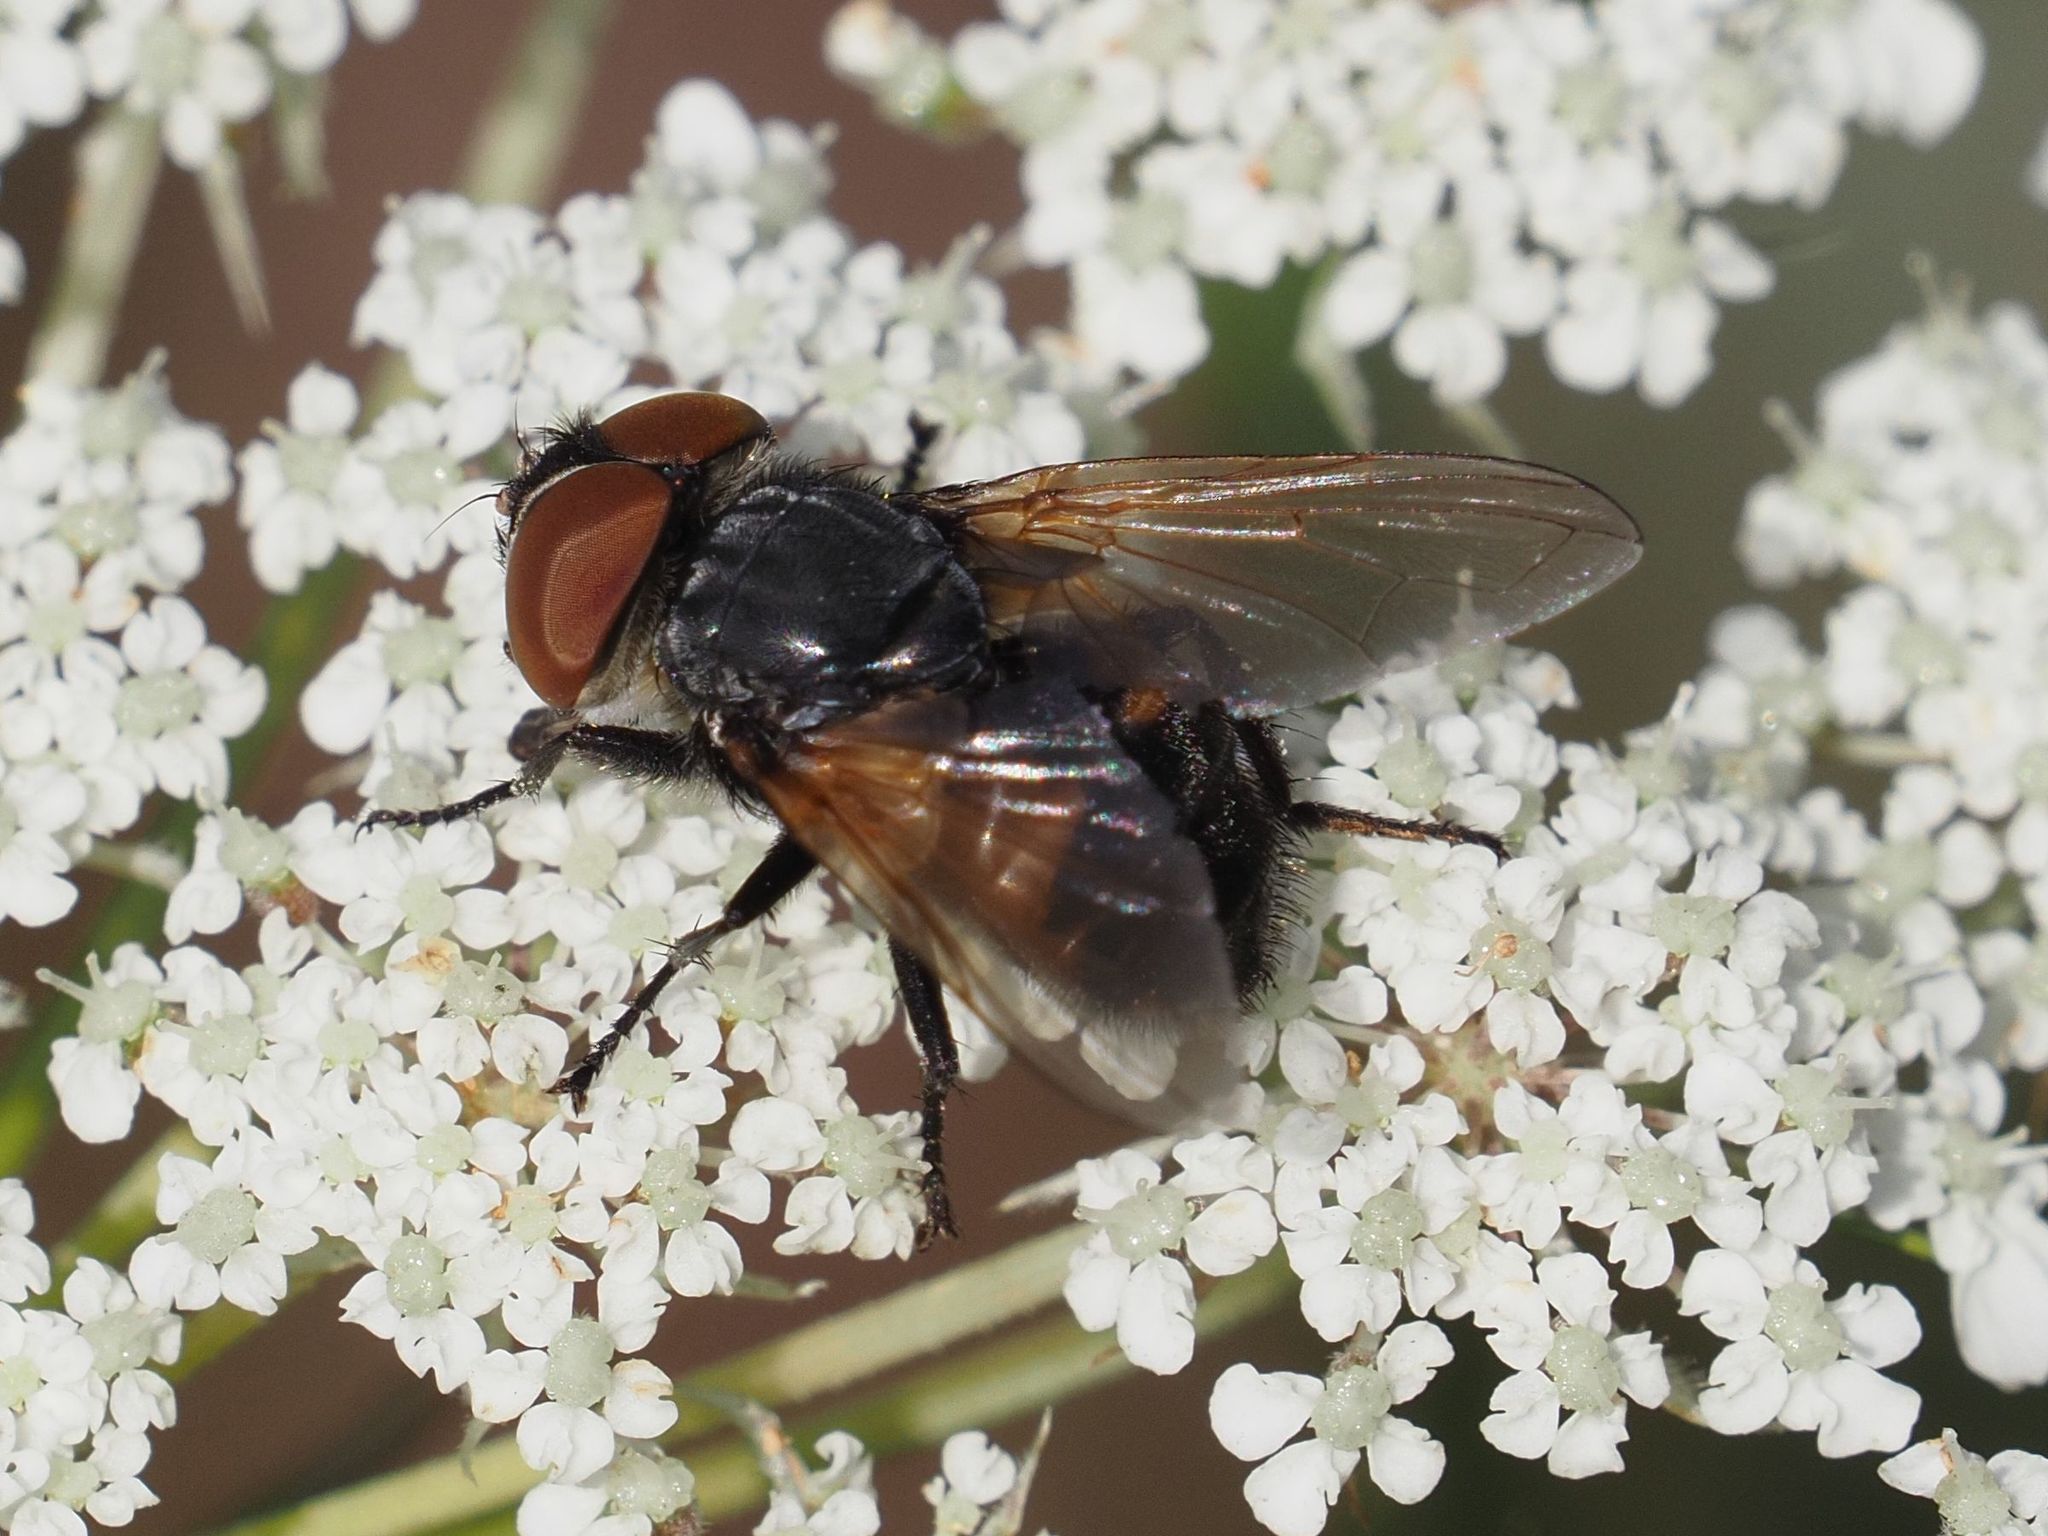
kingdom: Animalia
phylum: Arthropoda
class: Insecta
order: Diptera
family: Tachinidae
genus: Phasia
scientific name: Phasia aurigera
